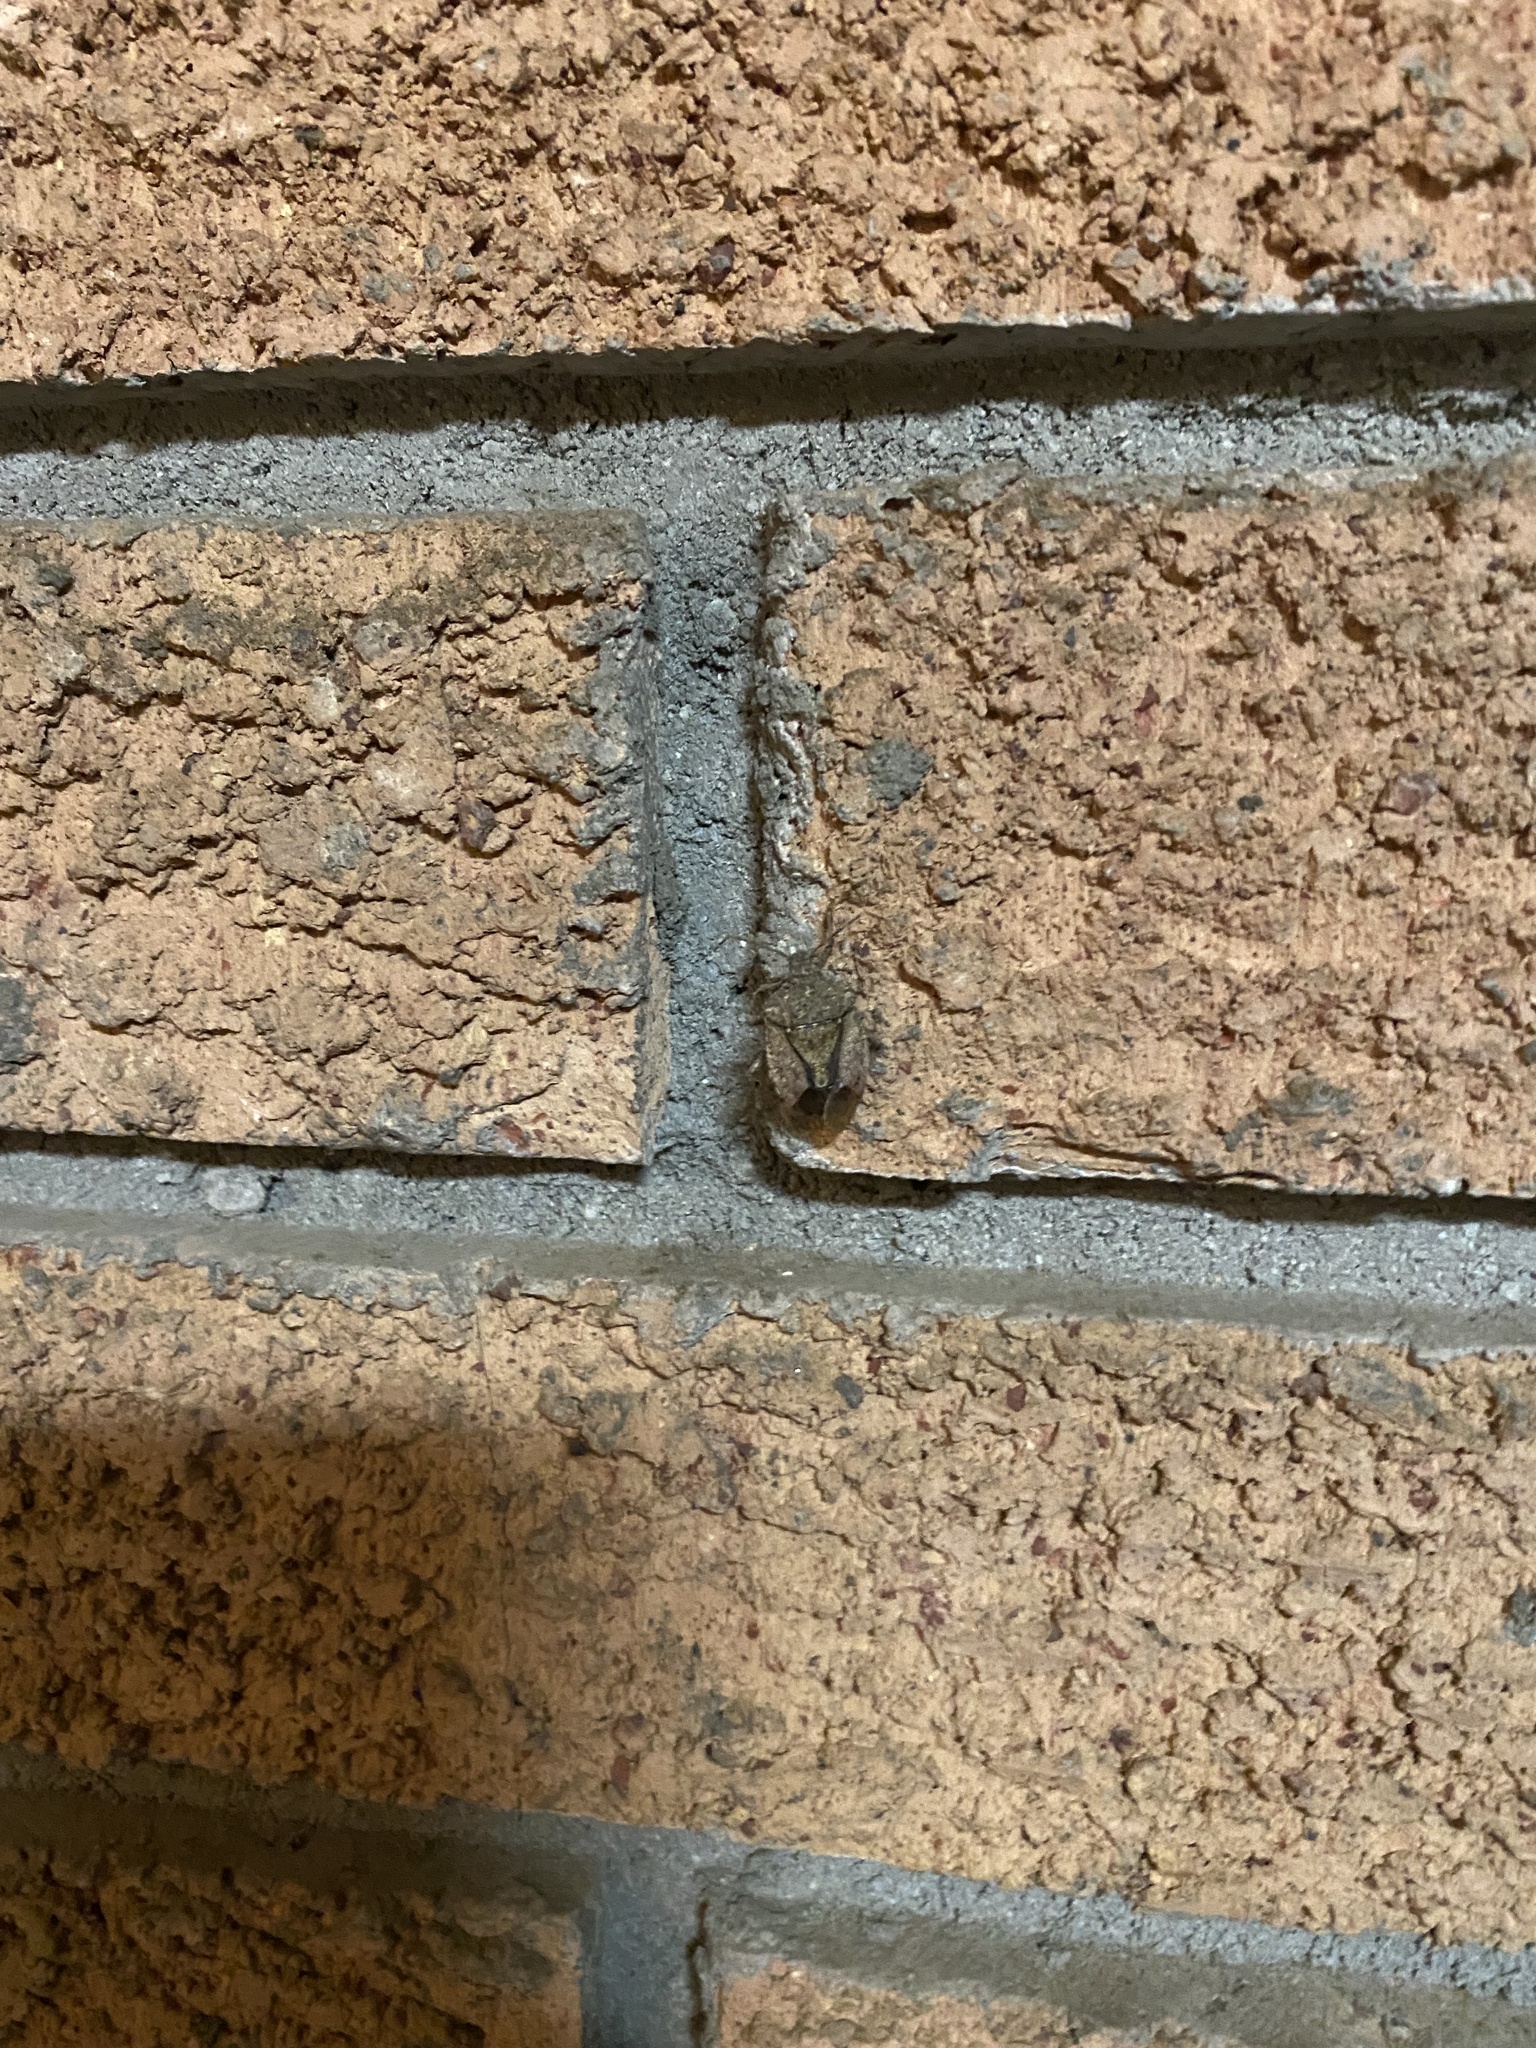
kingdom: Animalia
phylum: Arthropoda
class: Insecta
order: Hemiptera
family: Pentatomidae
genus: Halyomorpha
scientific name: Halyomorpha halys
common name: Brown marmorated stink bug
